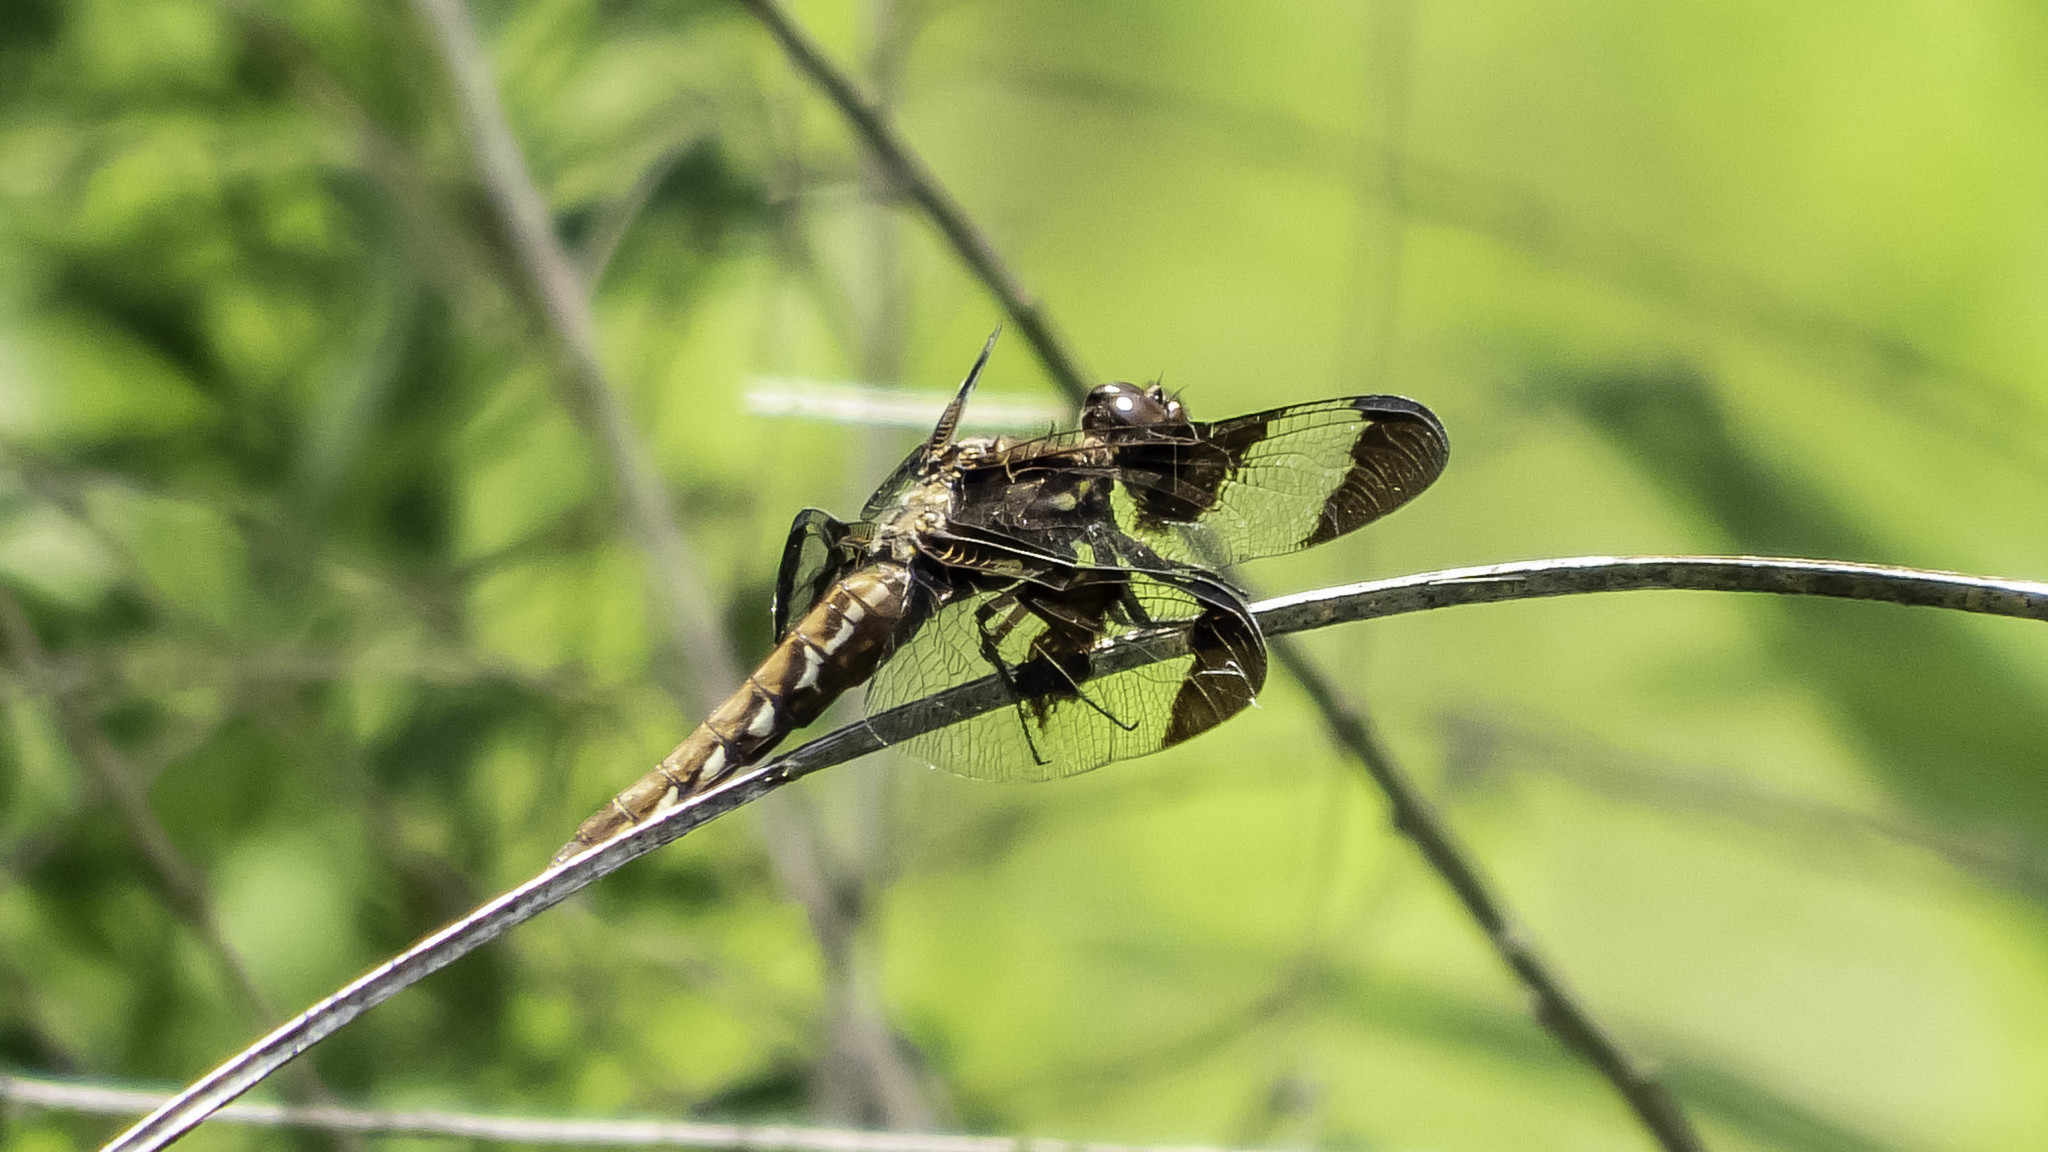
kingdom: Animalia
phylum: Arthropoda
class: Insecta
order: Odonata
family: Libellulidae
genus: Plathemis
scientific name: Plathemis lydia
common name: Common whitetail
